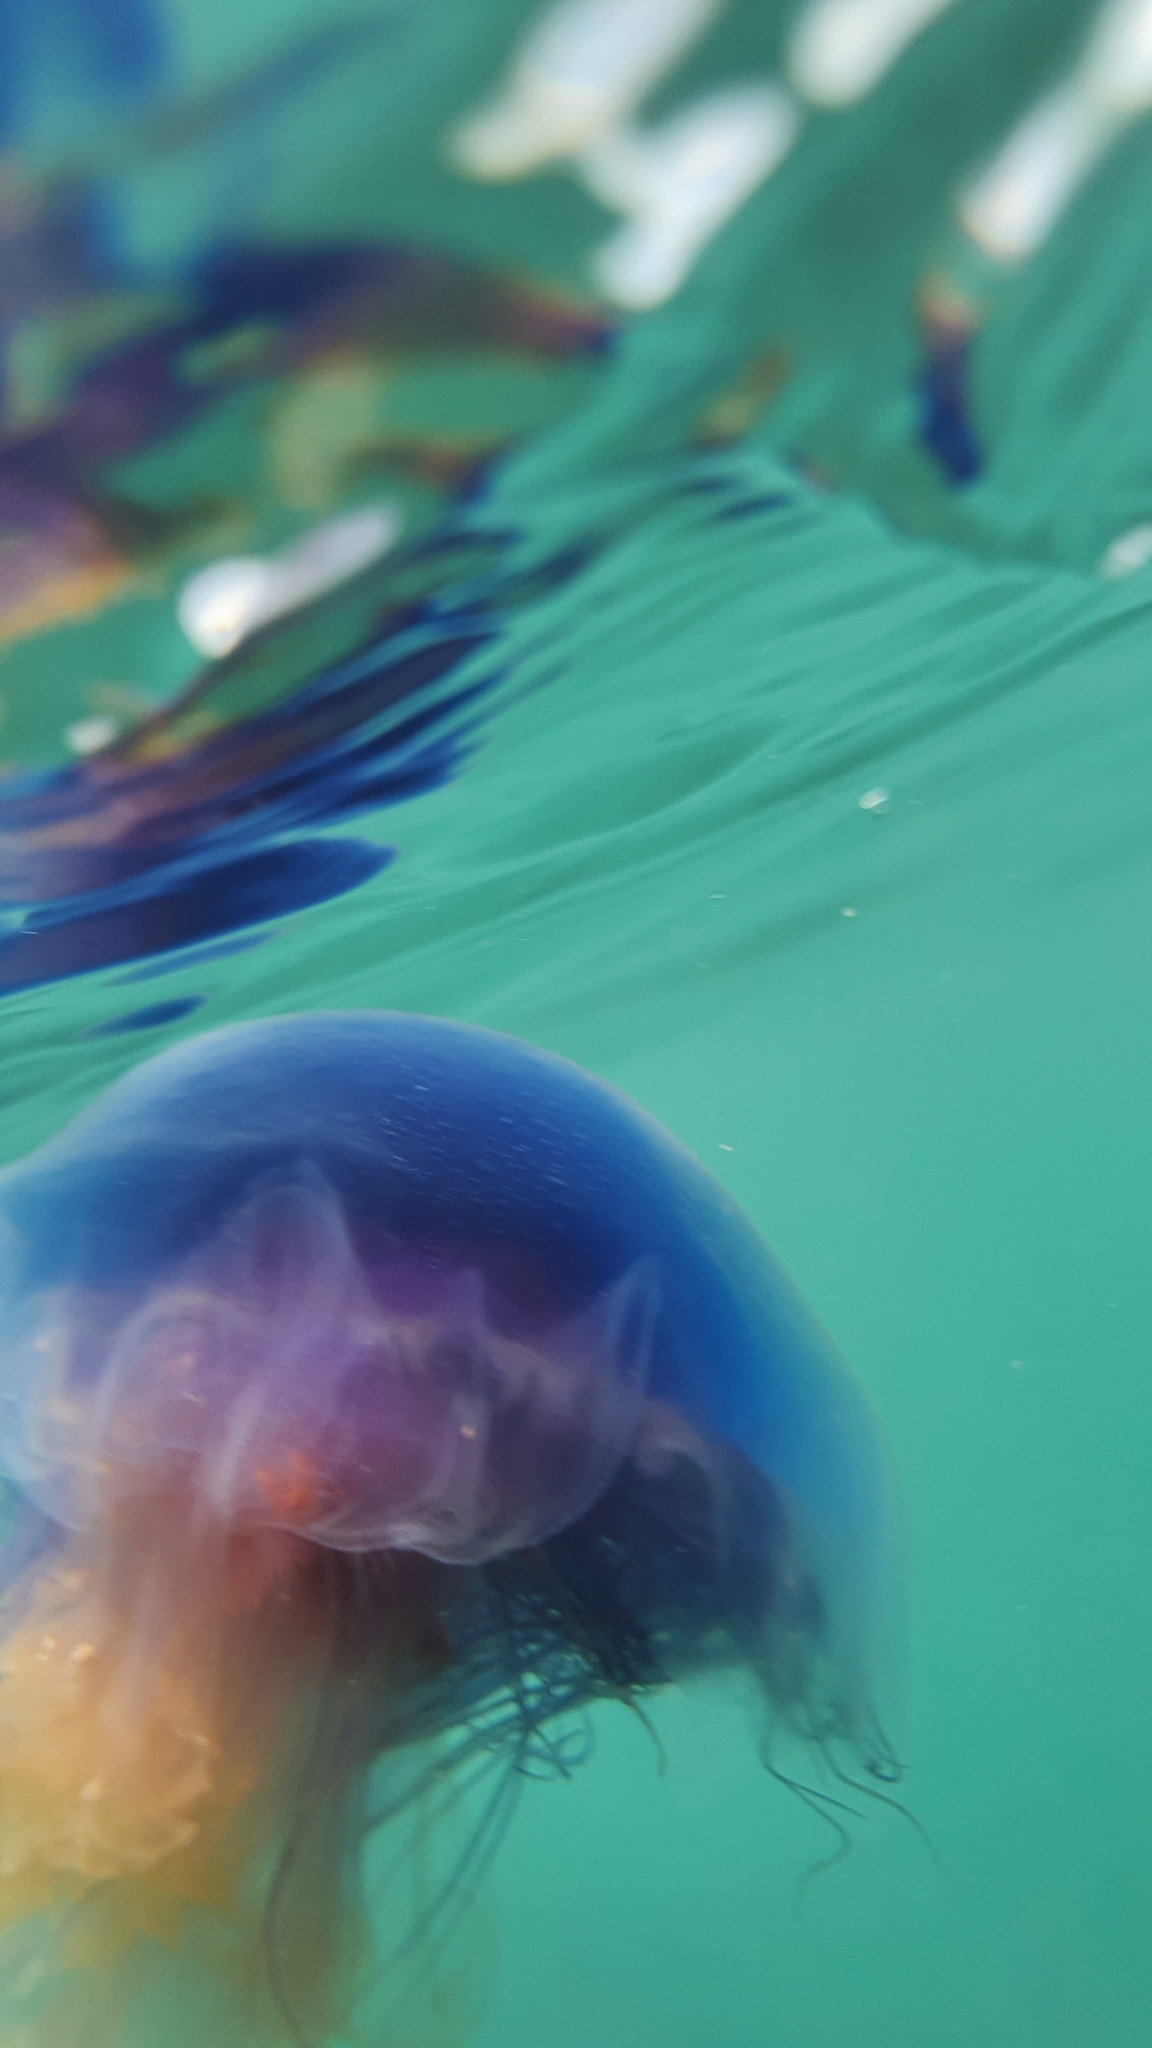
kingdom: Animalia
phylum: Cnidaria
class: Scyphozoa
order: Semaeostomeae
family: Cyaneidae
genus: Cyanea
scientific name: Cyanea lamarckii
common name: Blue jellyfish
